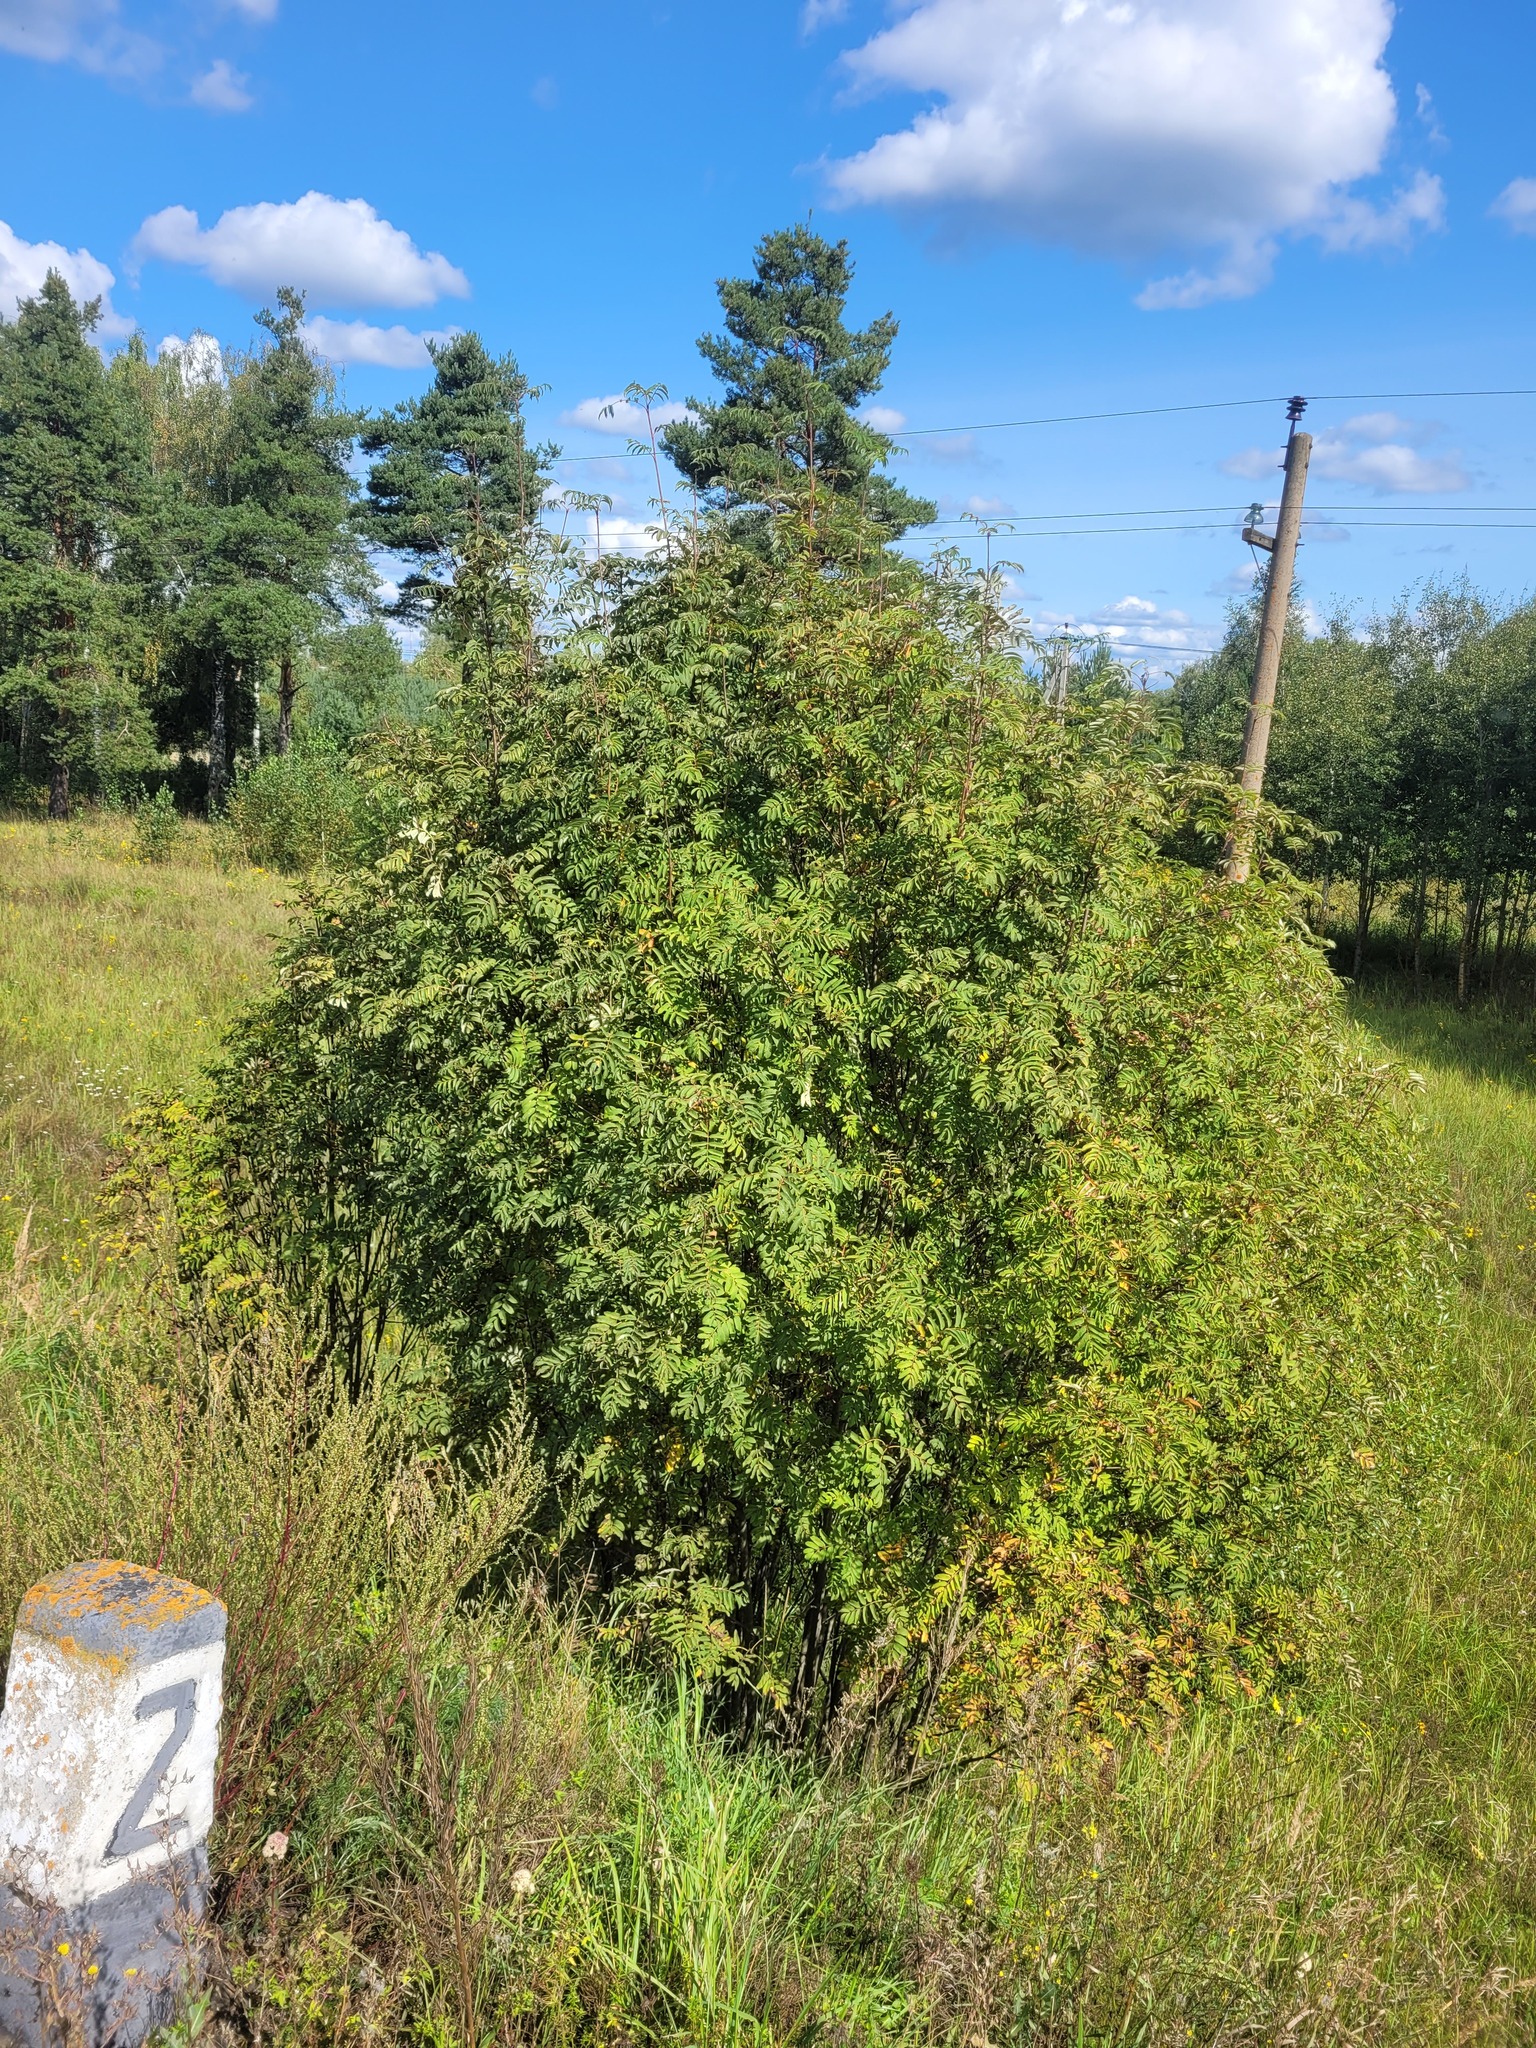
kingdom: Plantae
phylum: Tracheophyta
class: Magnoliopsida
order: Rosales
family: Rosaceae
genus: Sorbus
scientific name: Sorbus aucuparia
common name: Rowan
